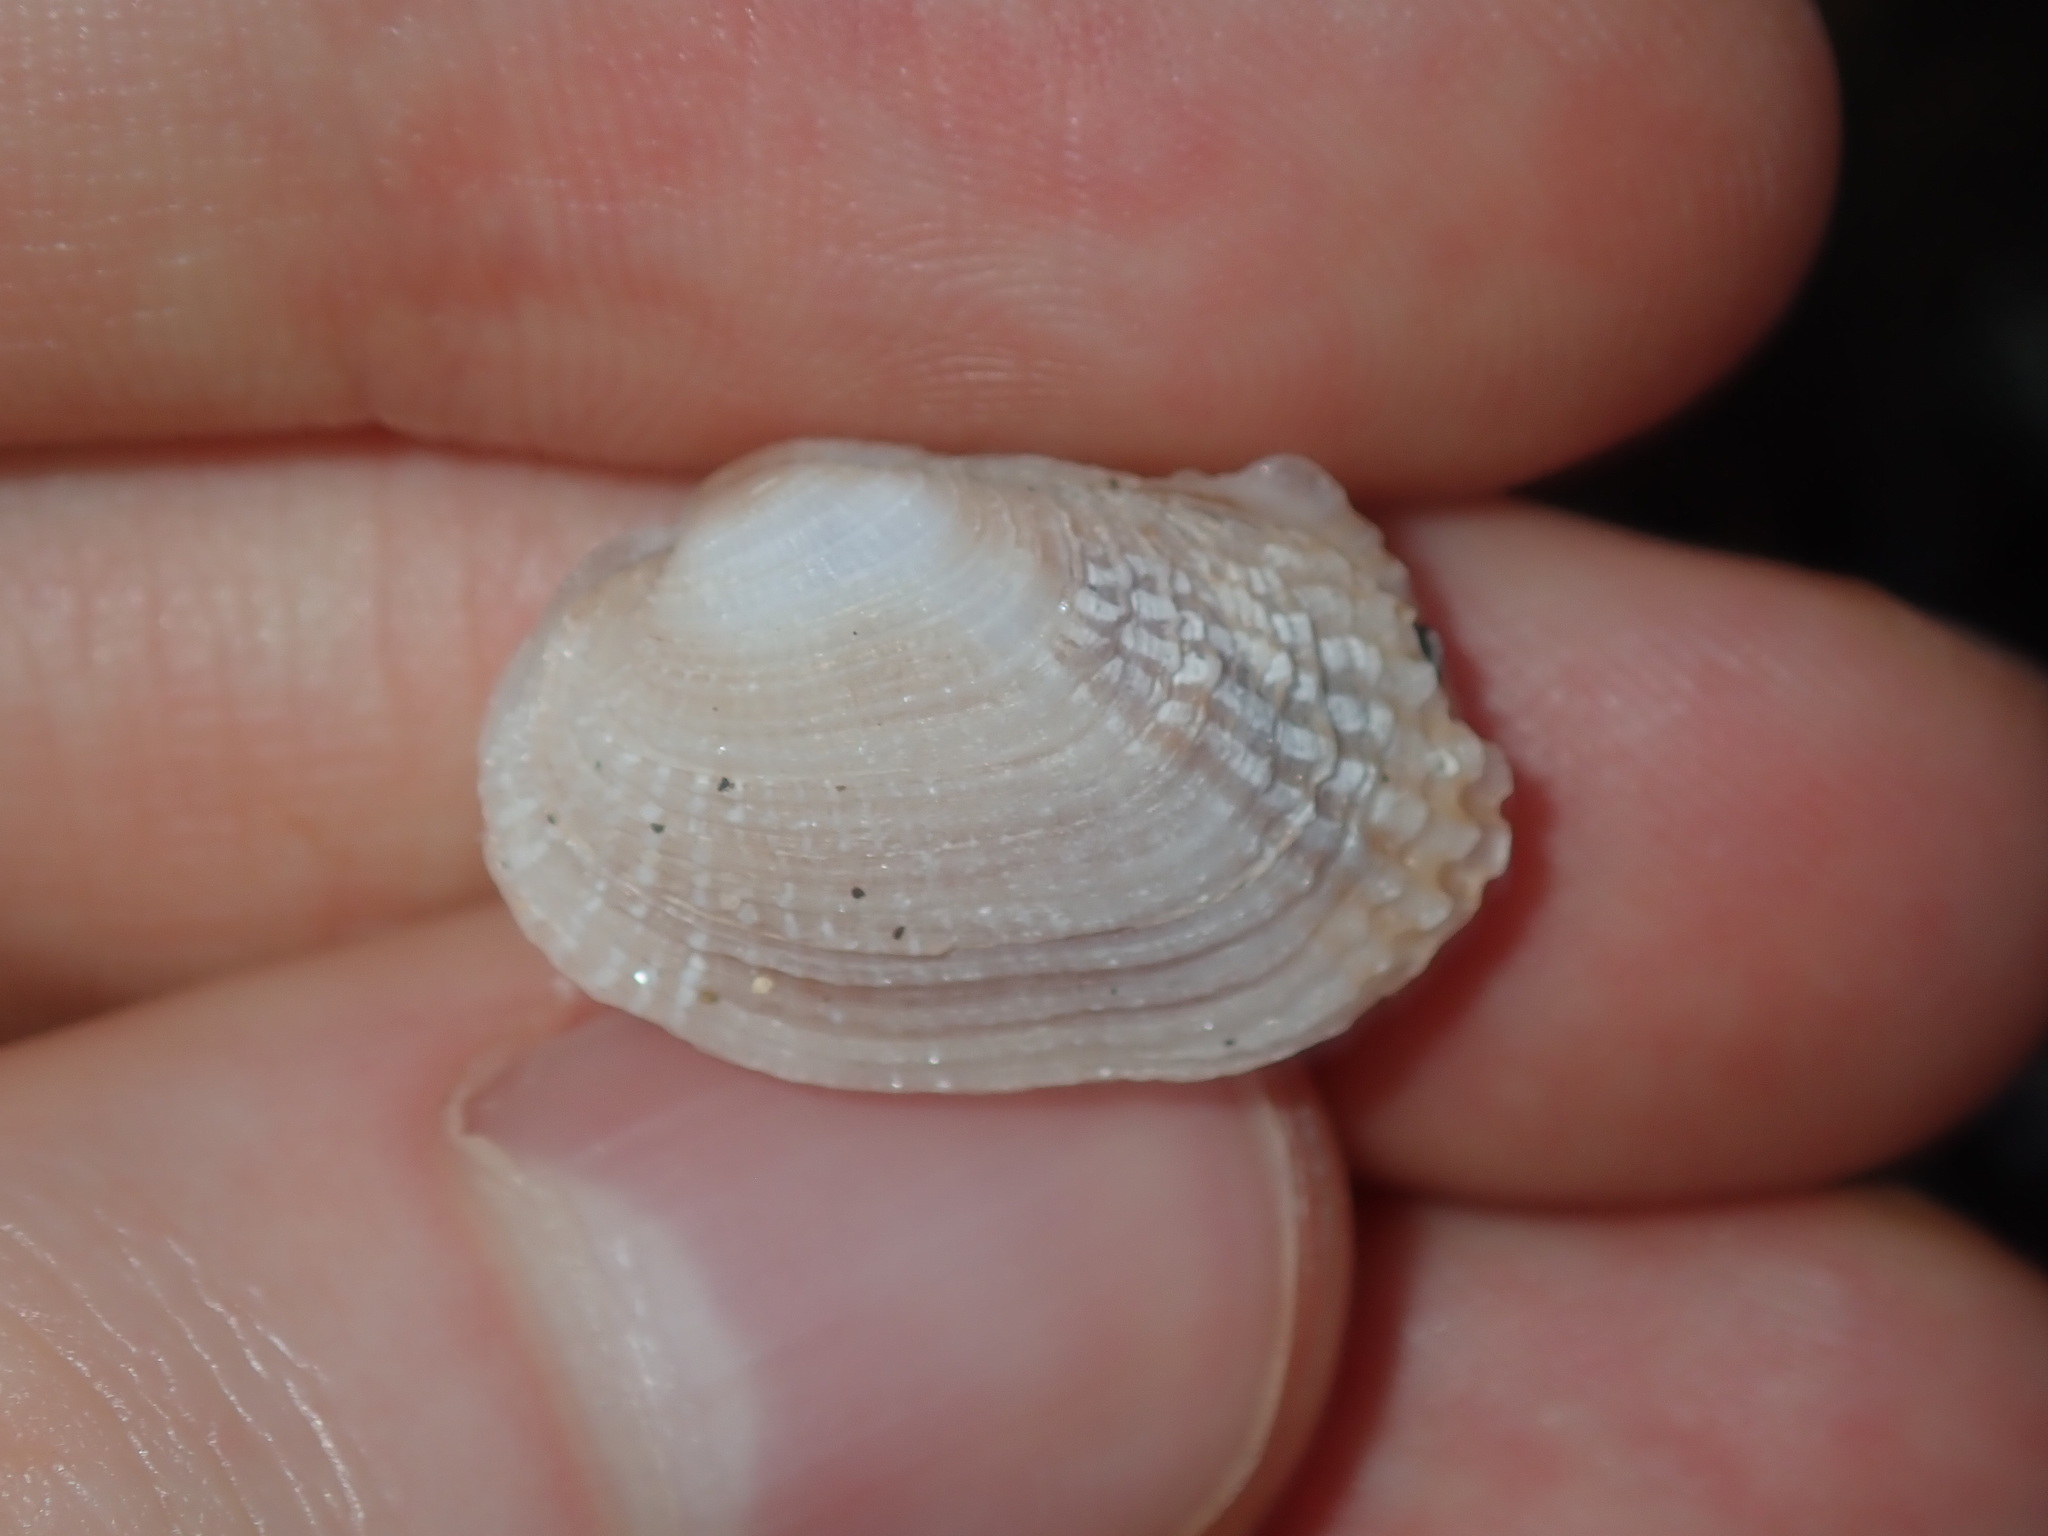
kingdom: Animalia
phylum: Mollusca
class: Bivalvia
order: Venerida
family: Veneridae
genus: Irus
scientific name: Irus crenatus
